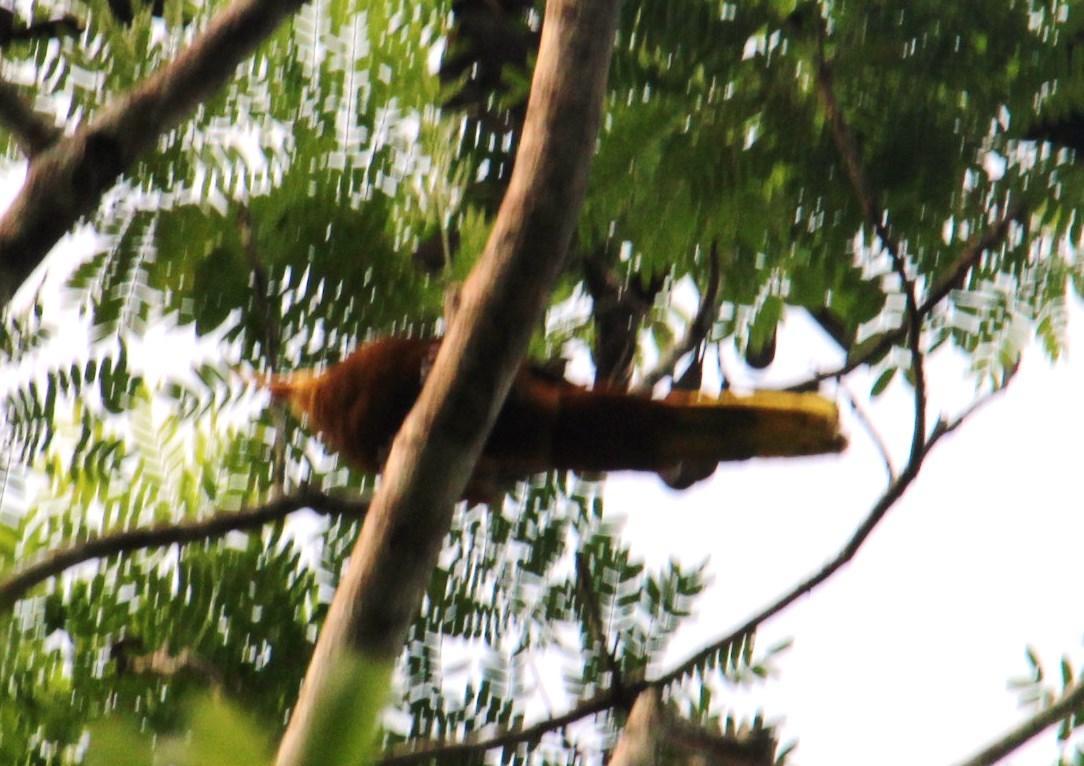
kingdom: Animalia
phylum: Chordata
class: Aves
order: Passeriformes
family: Icteridae
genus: Psarocolius
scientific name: Psarocolius angustifrons
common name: Russet-backed oropendola
